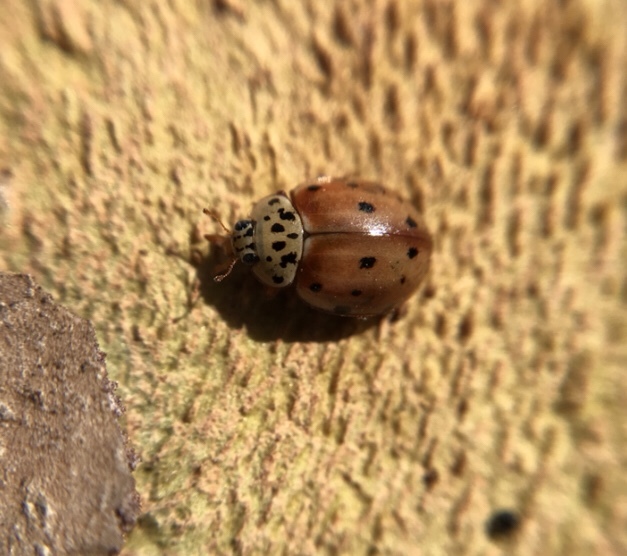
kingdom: Animalia
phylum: Arthropoda
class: Insecta
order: Coleoptera
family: Coccinellidae
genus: Harmonia
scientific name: Harmonia quadripunctata
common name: Cream-streaked ladybird
